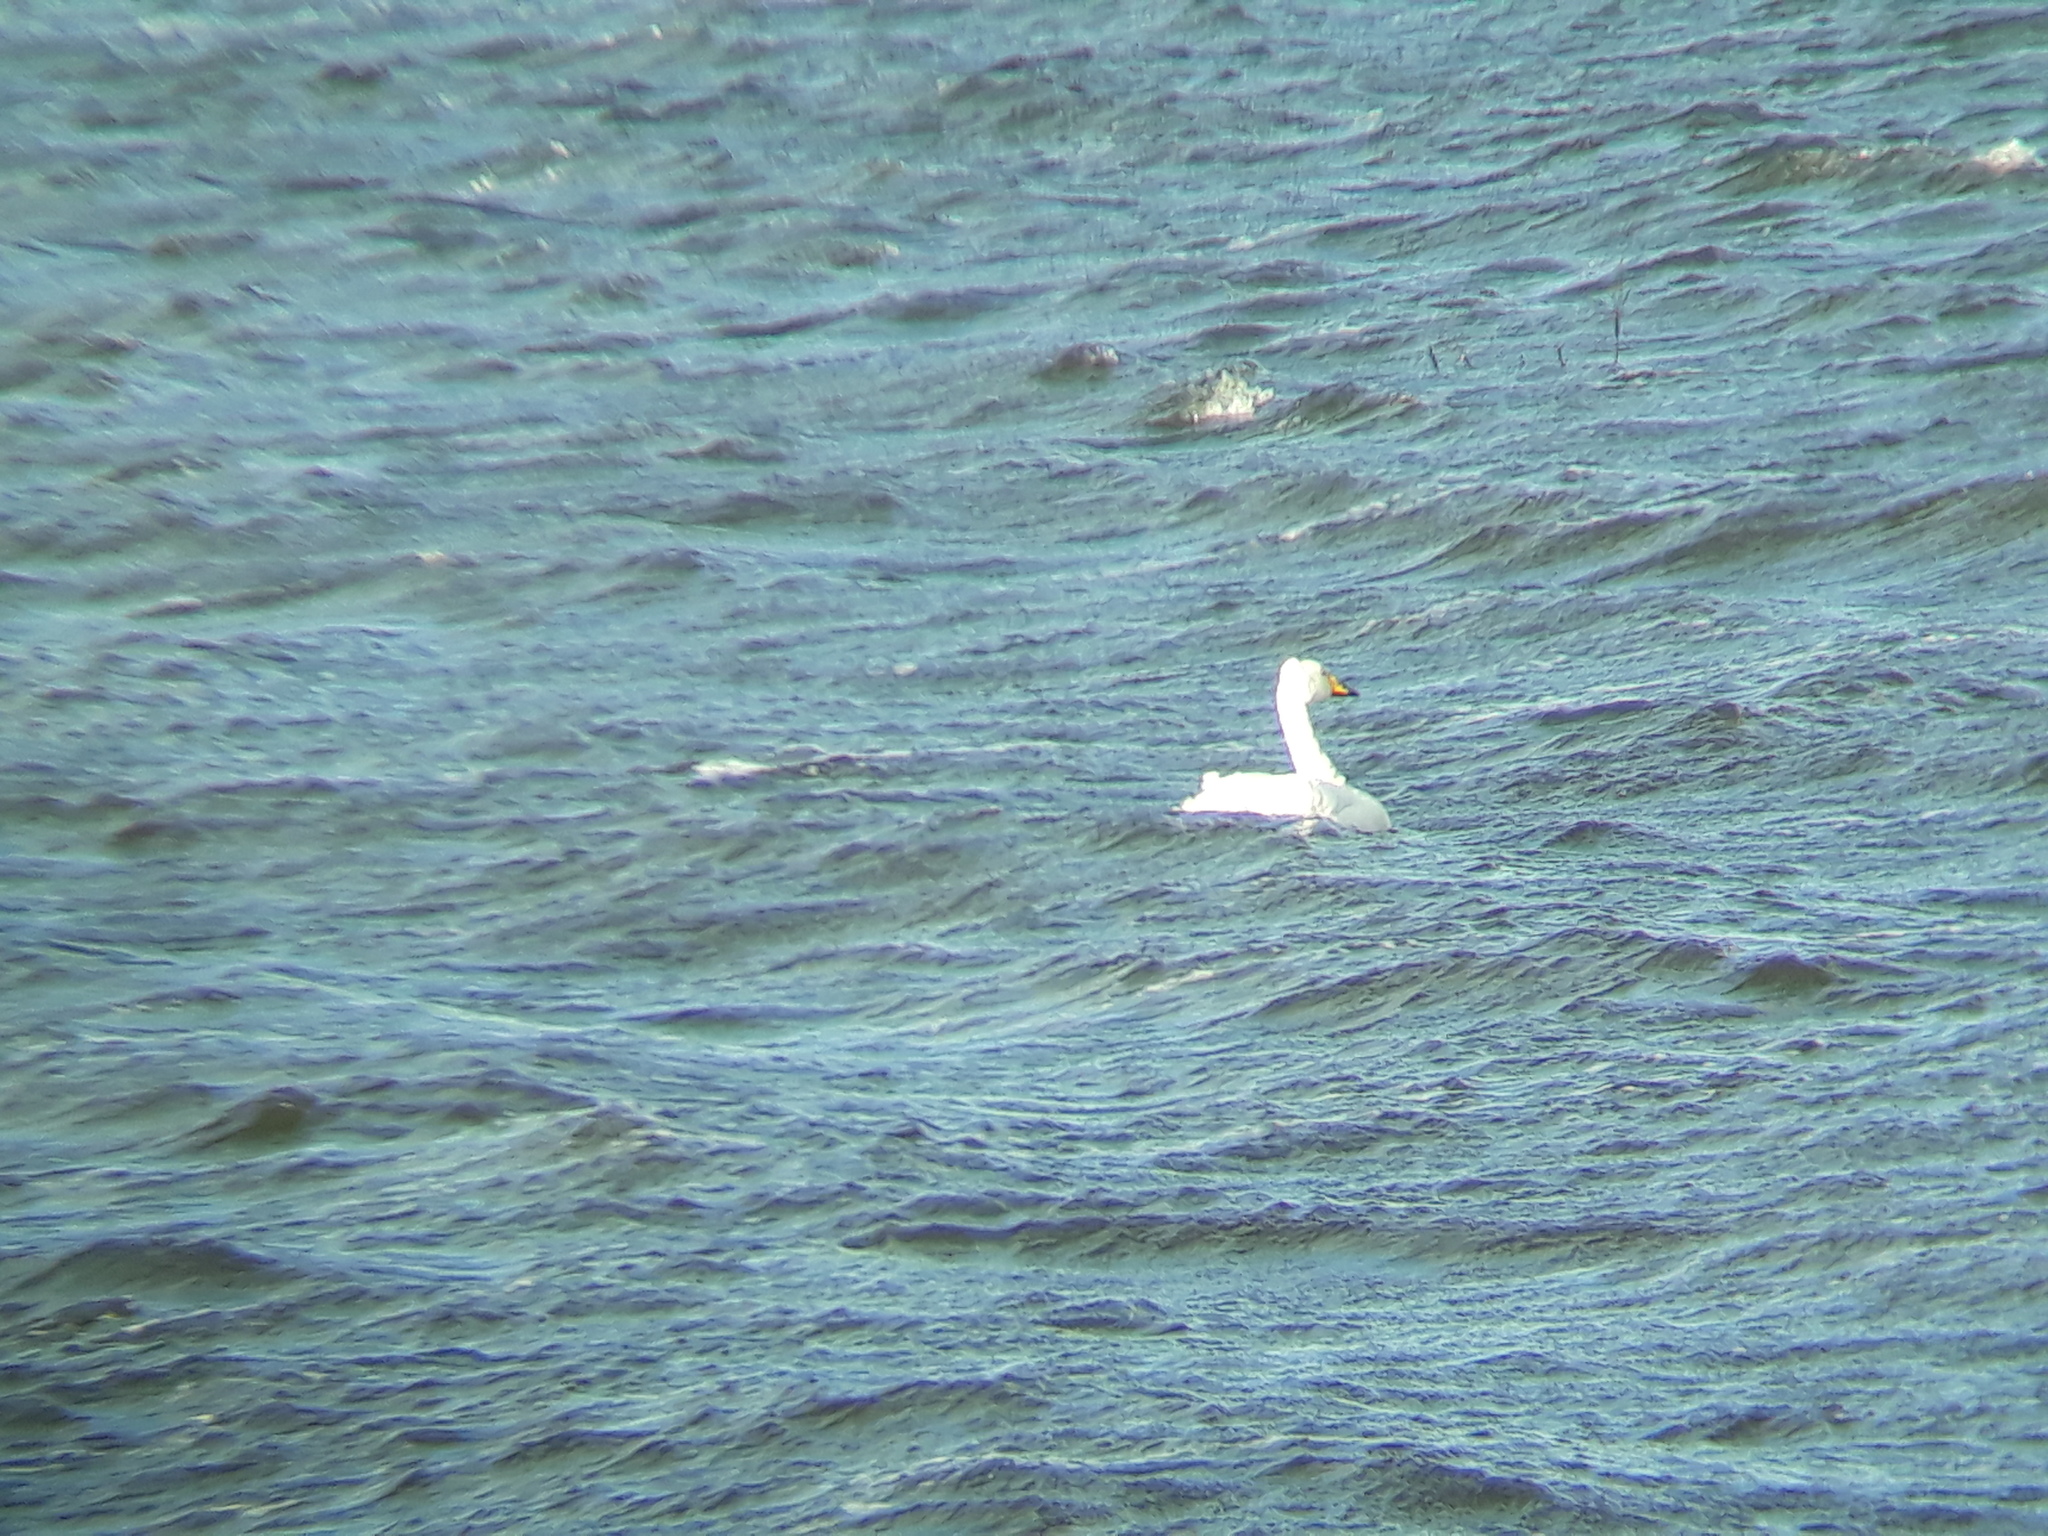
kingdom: Animalia
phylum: Chordata
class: Aves
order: Anseriformes
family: Anatidae
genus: Cygnus
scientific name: Cygnus cygnus
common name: Whooper swan
